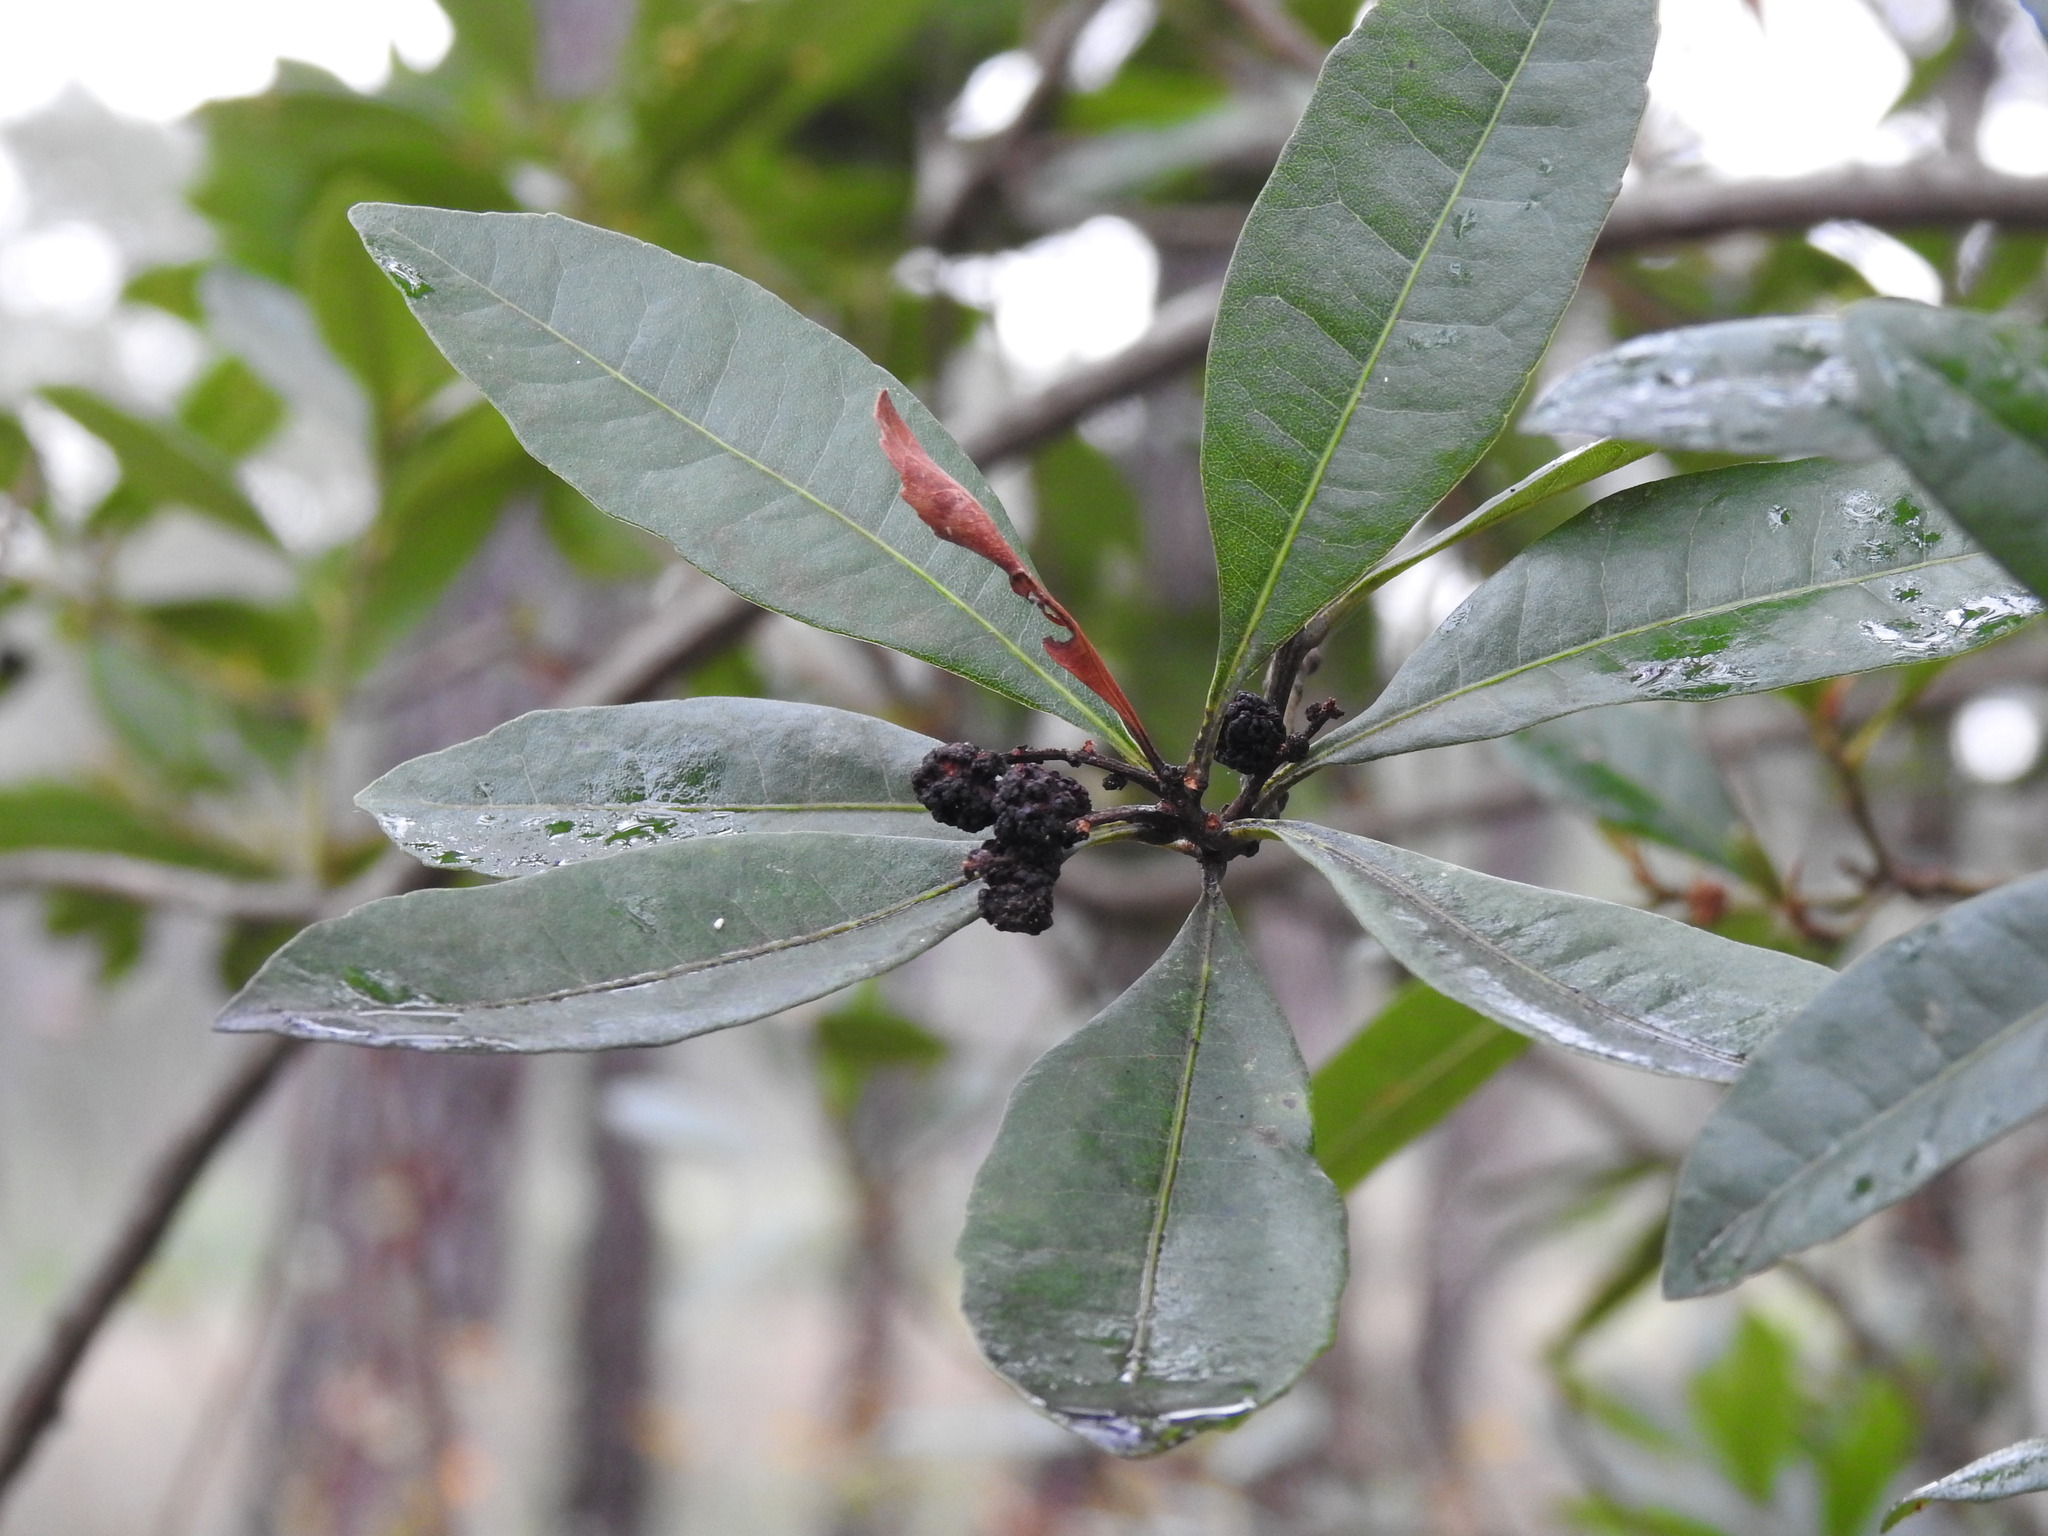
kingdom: Plantae
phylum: Tracheophyta
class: Magnoliopsida
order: Fagales
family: Myricaceae
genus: Morella
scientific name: Morella faya
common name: Firetree
